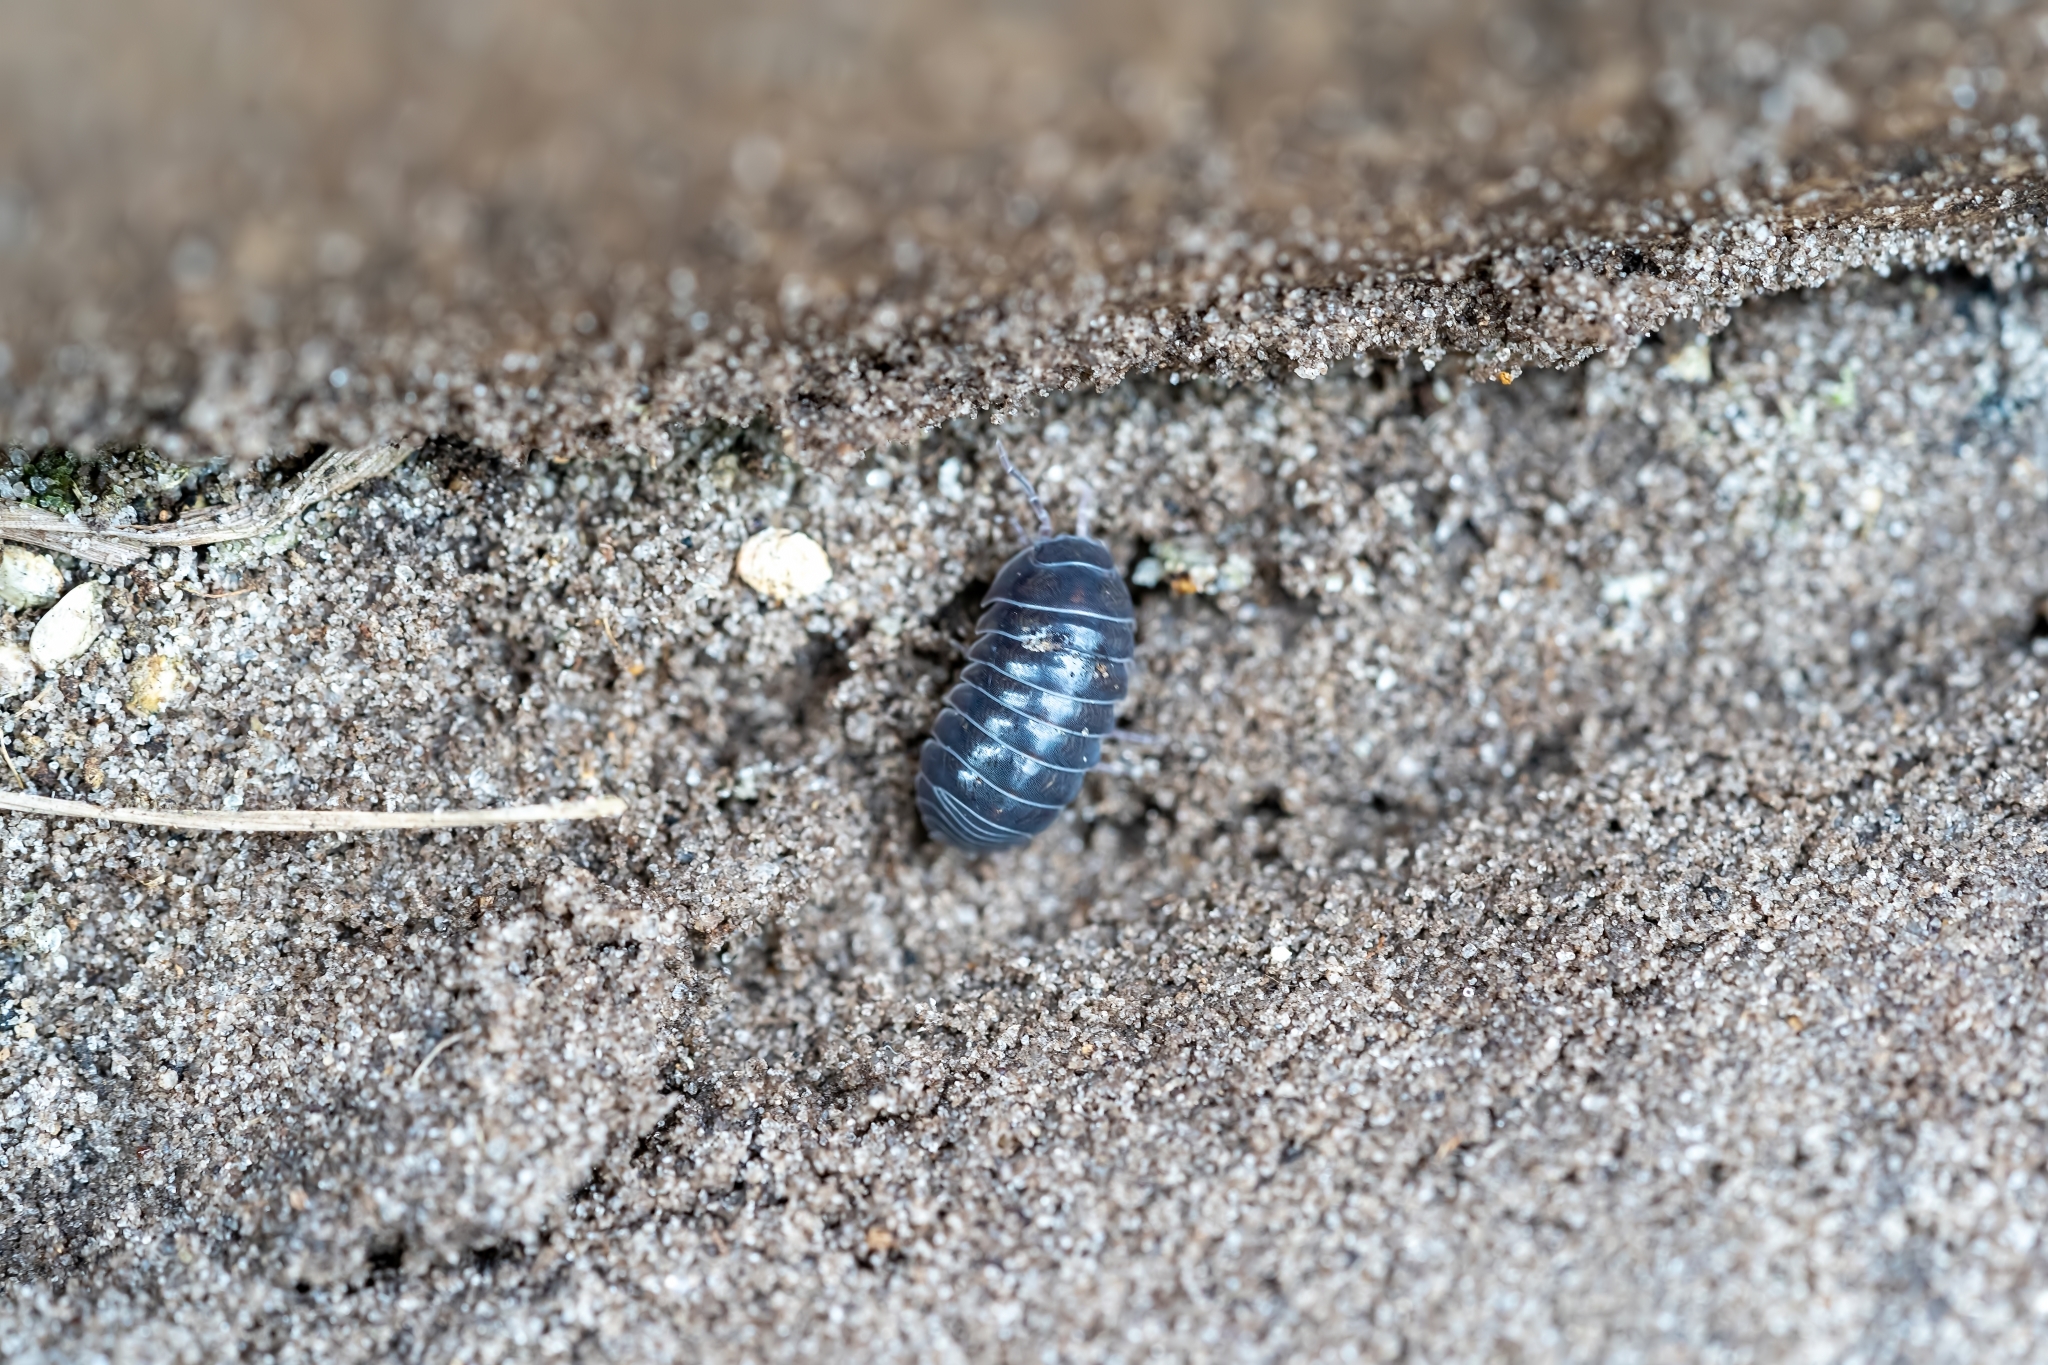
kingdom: Animalia
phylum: Arthropoda
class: Malacostraca
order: Isopoda
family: Armadillidiidae
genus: Armadillidium
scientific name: Armadillidium vulgare
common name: Common pill woodlouse
